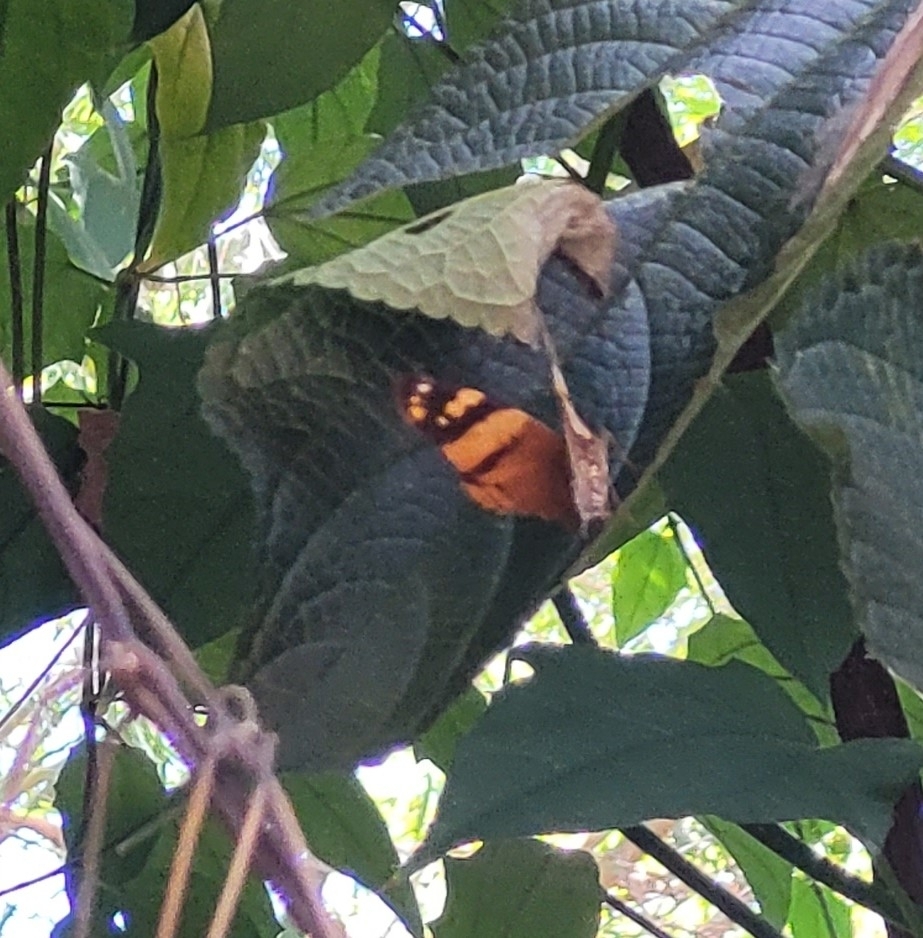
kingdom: Animalia
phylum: Arthropoda
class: Insecta
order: Lepidoptera
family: Nymphalidae
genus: Hypanartia
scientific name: Hypanartia lethe
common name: Orange mapwing
